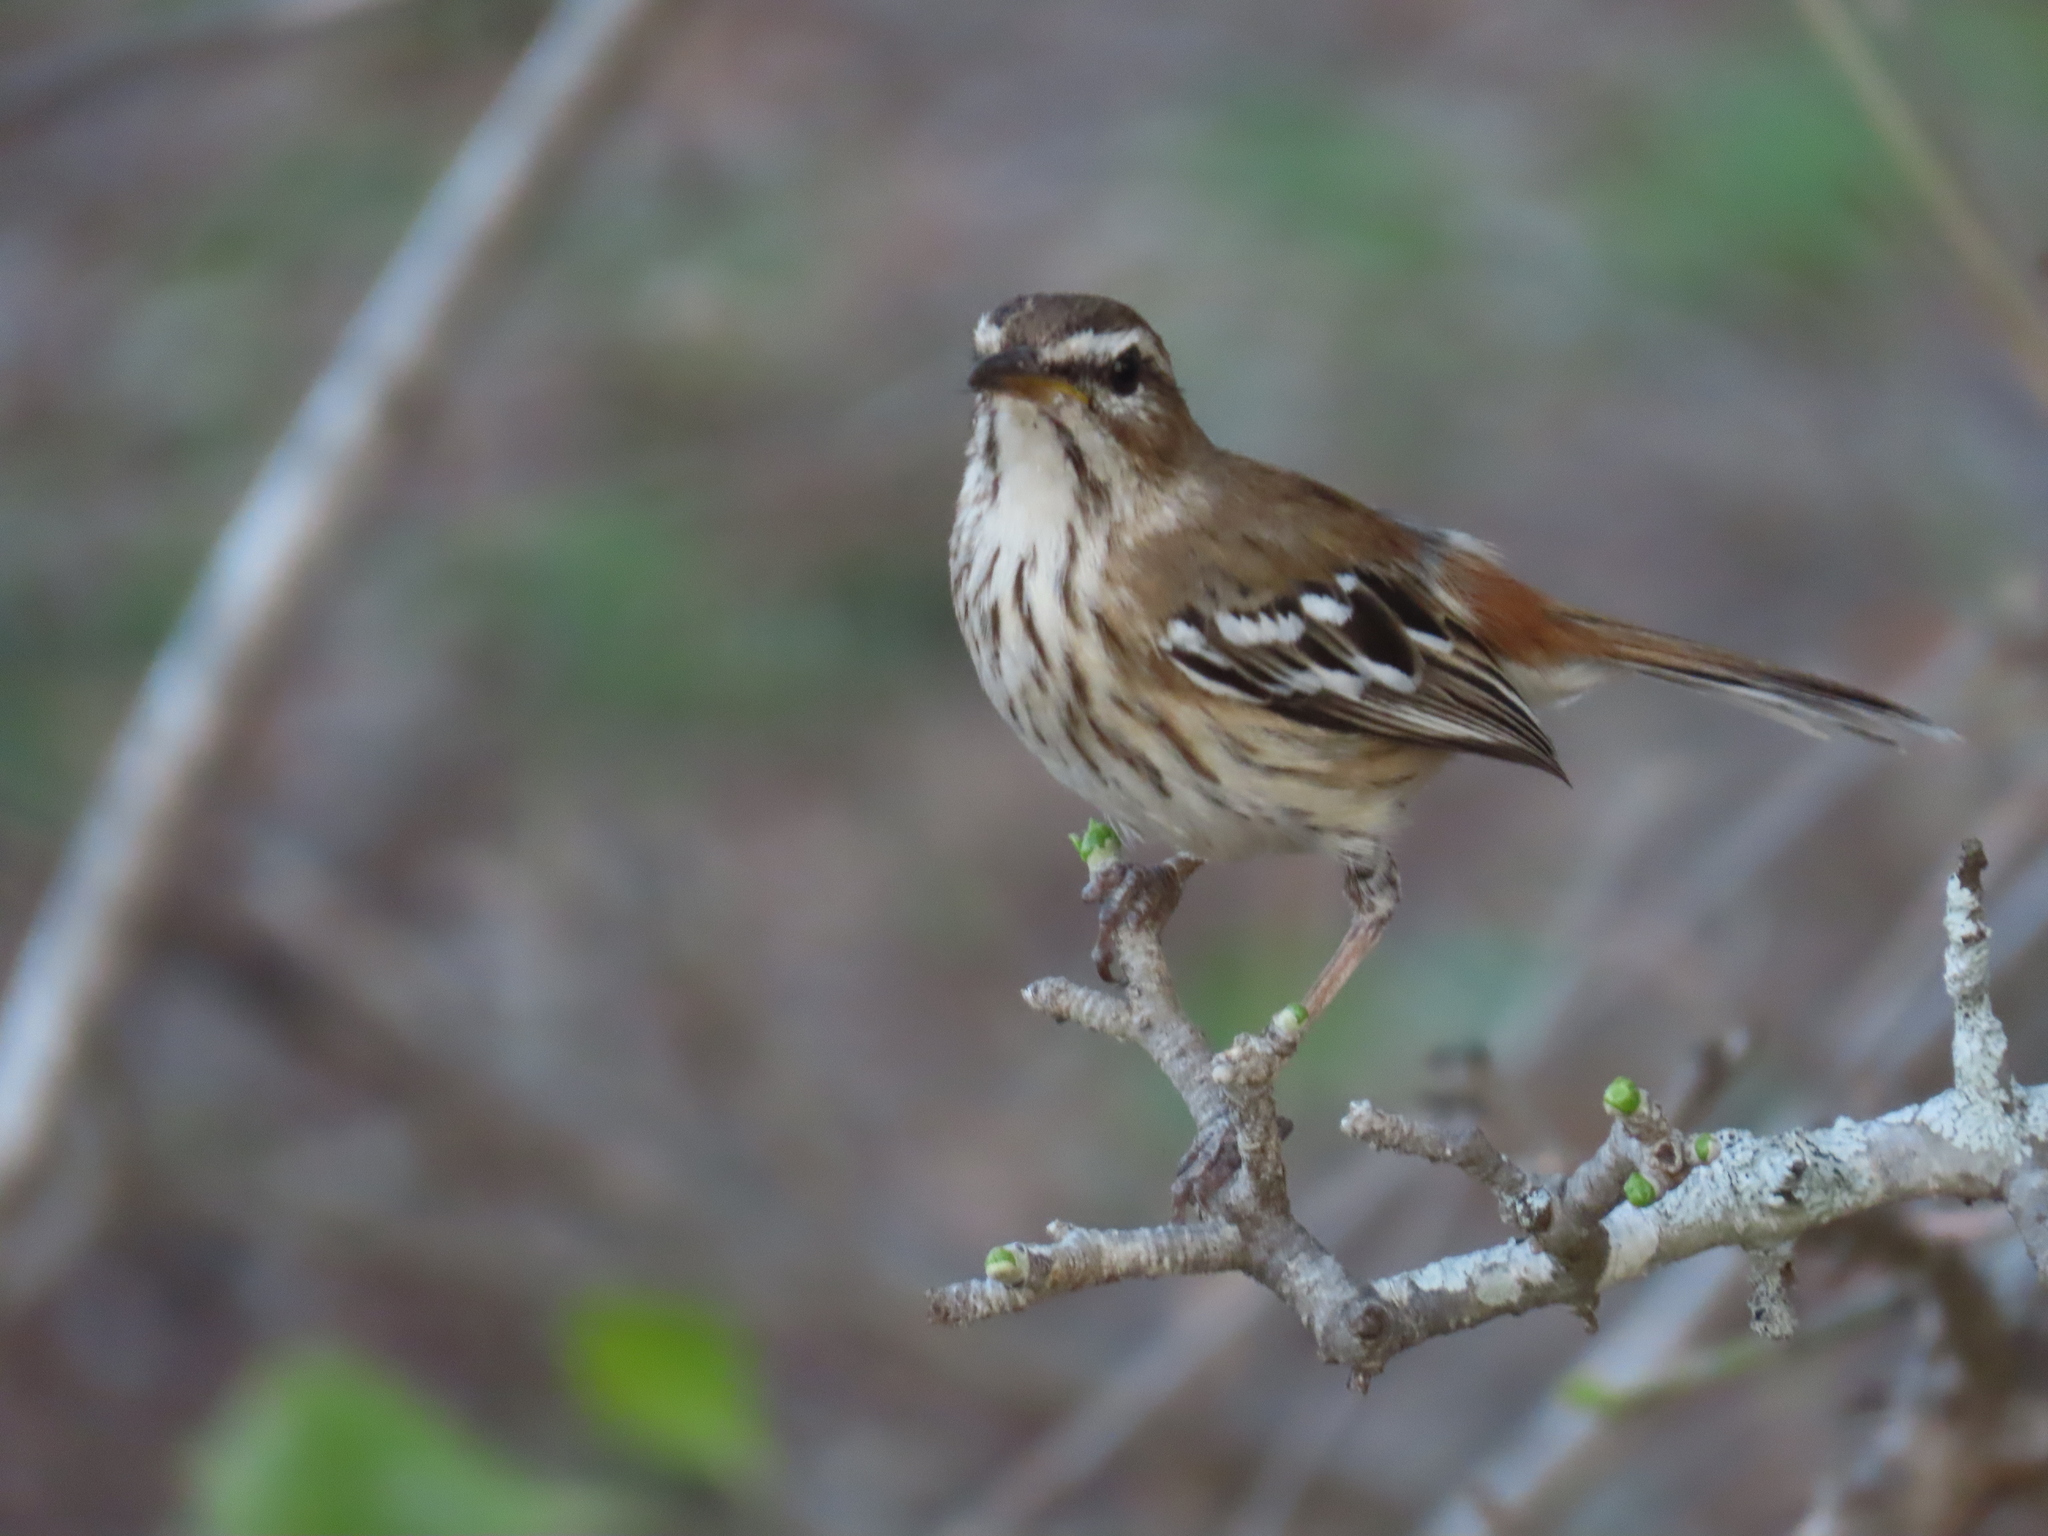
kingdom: Animalia
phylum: Chordata
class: Aves
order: Passeriformes
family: Muscicapidae
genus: Erythropygia
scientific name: Erythropygia leucophrys
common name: White-browed scrub robin
